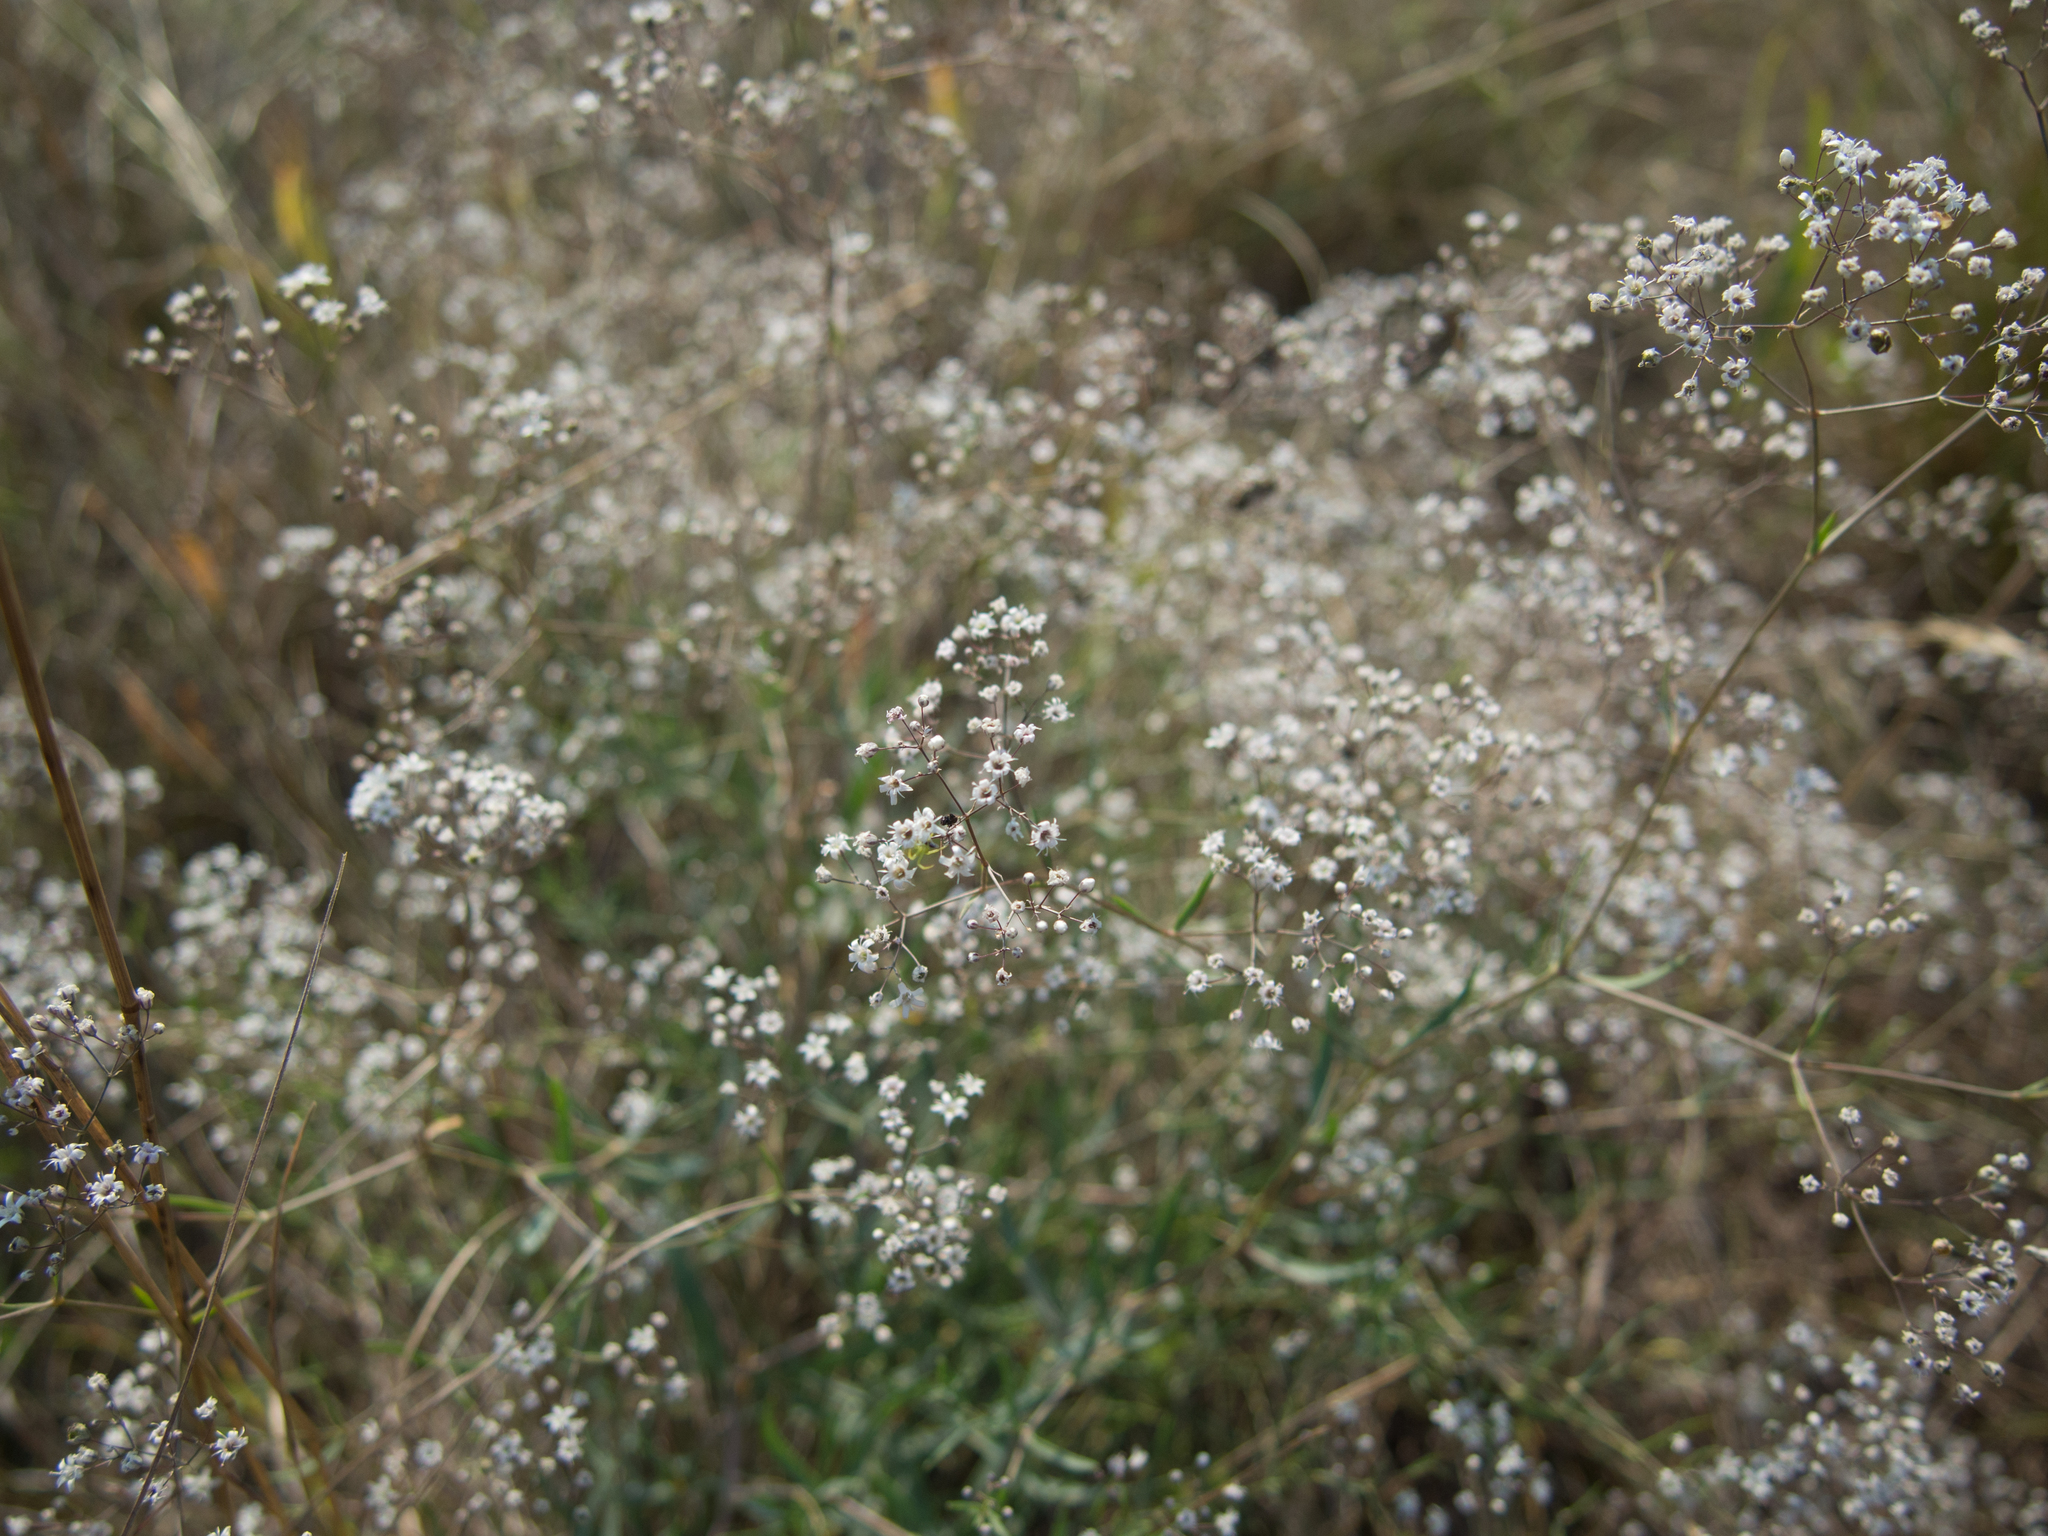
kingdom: Plantae
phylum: Tracheophyta
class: Magnoliopsida
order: Caryophyllales
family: Caryophyllaceae
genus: Gypsophila
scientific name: Gypsophila paniculata
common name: Baby's-breath
